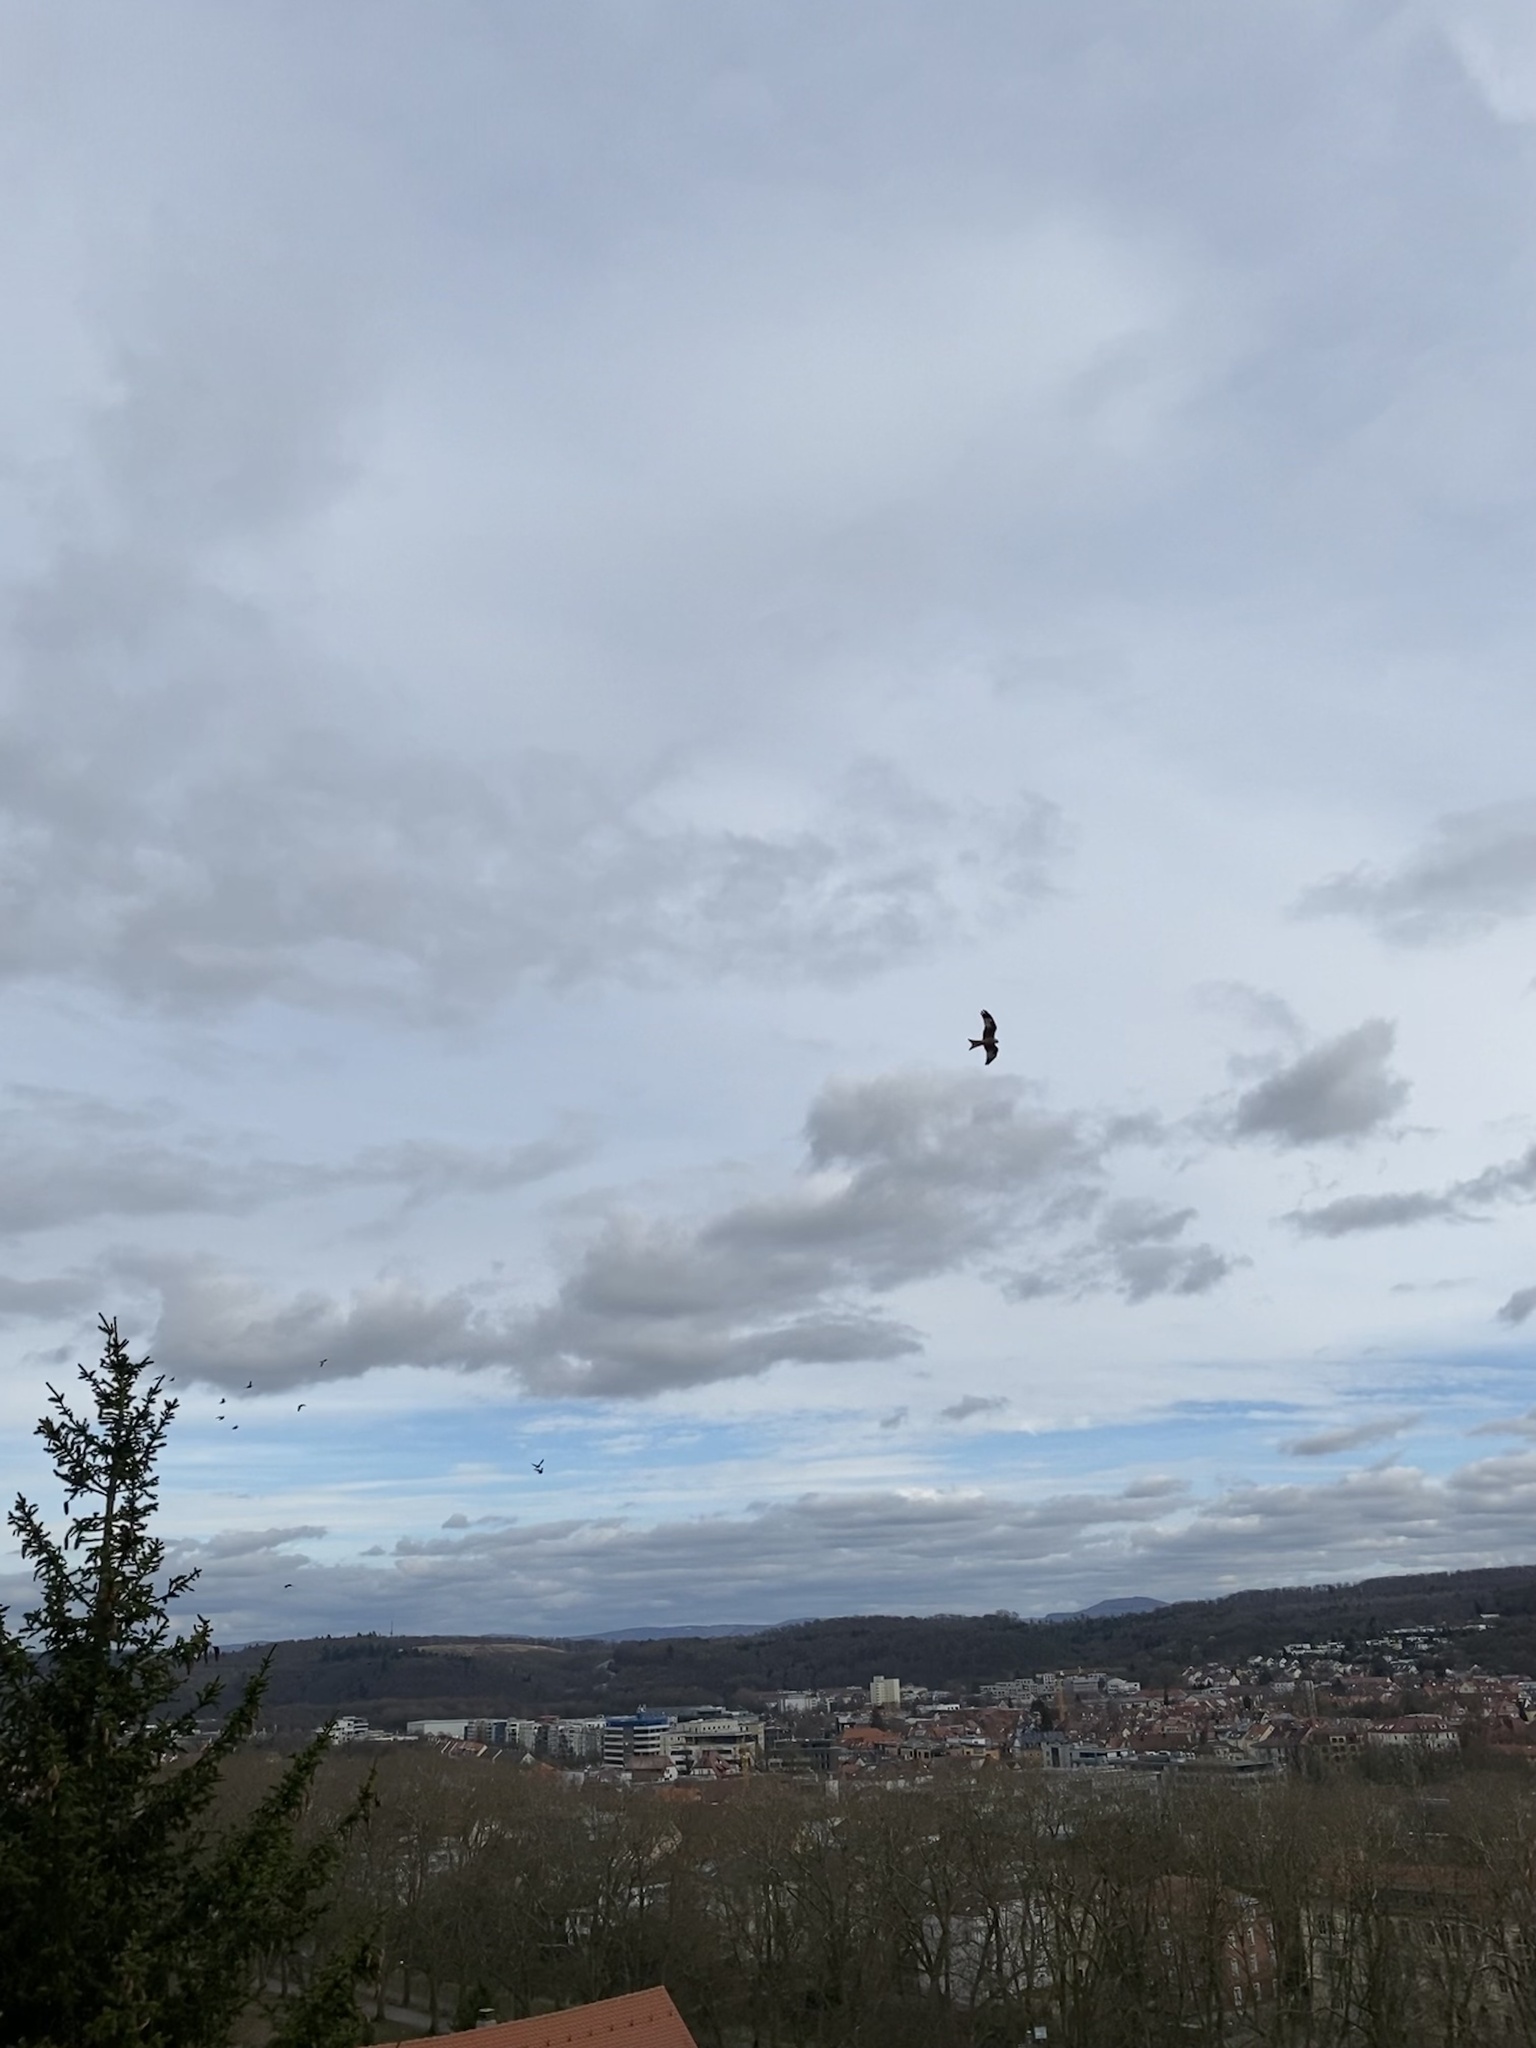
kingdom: Animalia
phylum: Chordata
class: Aves
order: Accipitriformes
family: Accipitridae
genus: Milvus
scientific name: Milvus milvus
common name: Red kite
